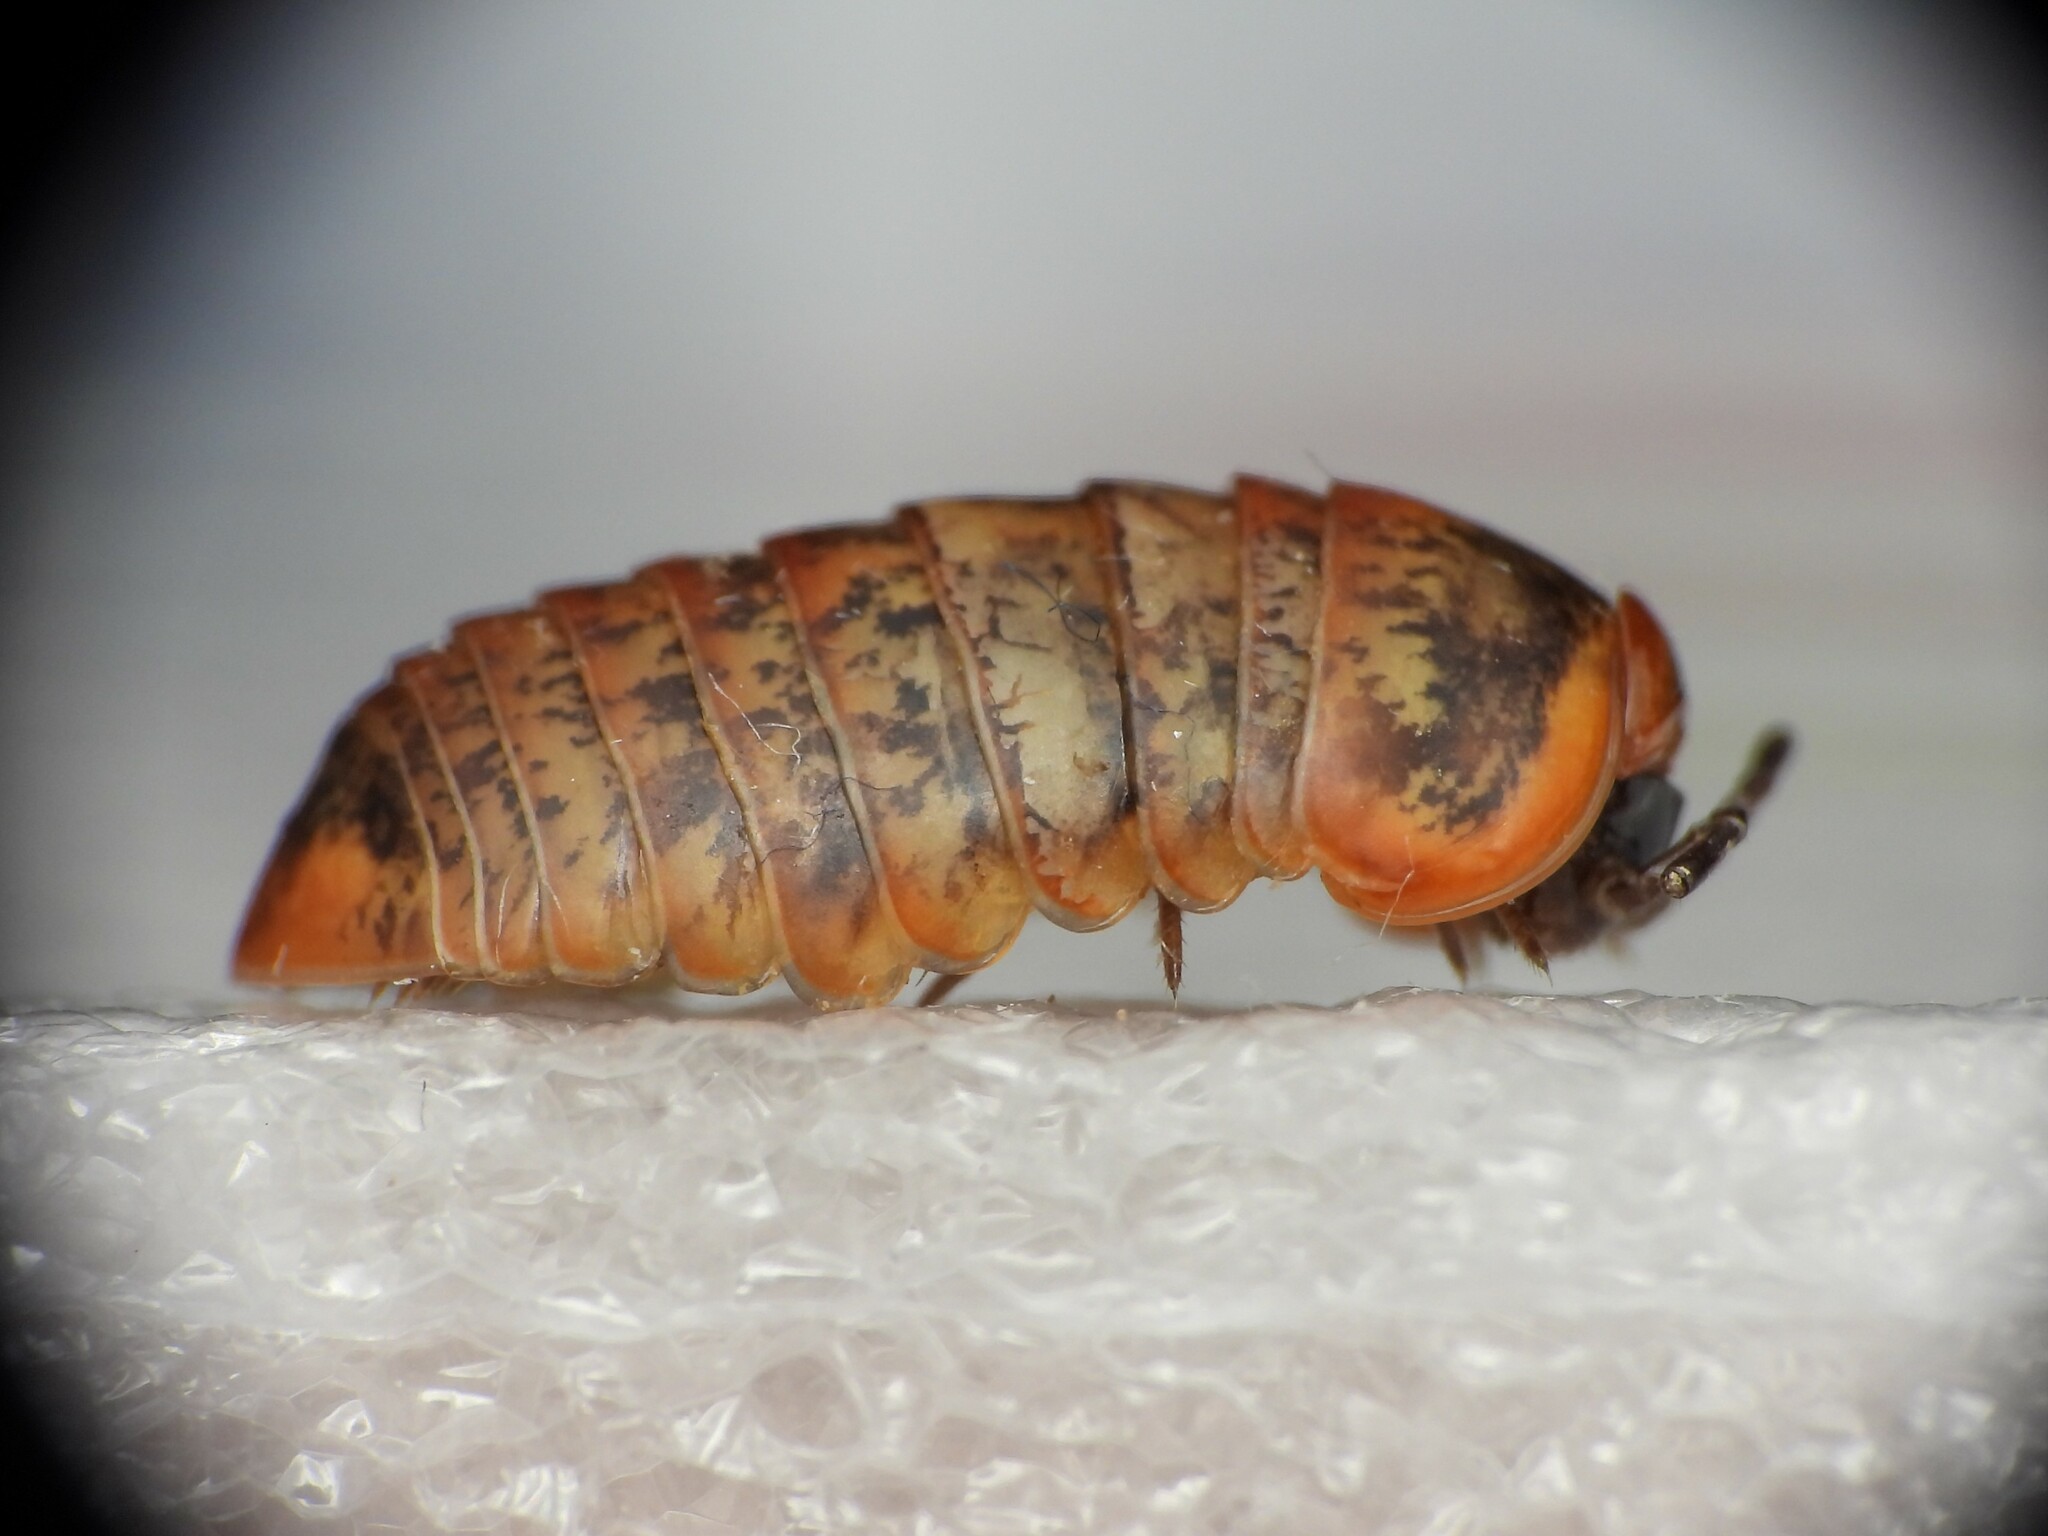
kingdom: Animalia
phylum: Arthropoda
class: Diplopoda
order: Glomerida
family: Glomeridae
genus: Glomeris
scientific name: Glomeris klugii
